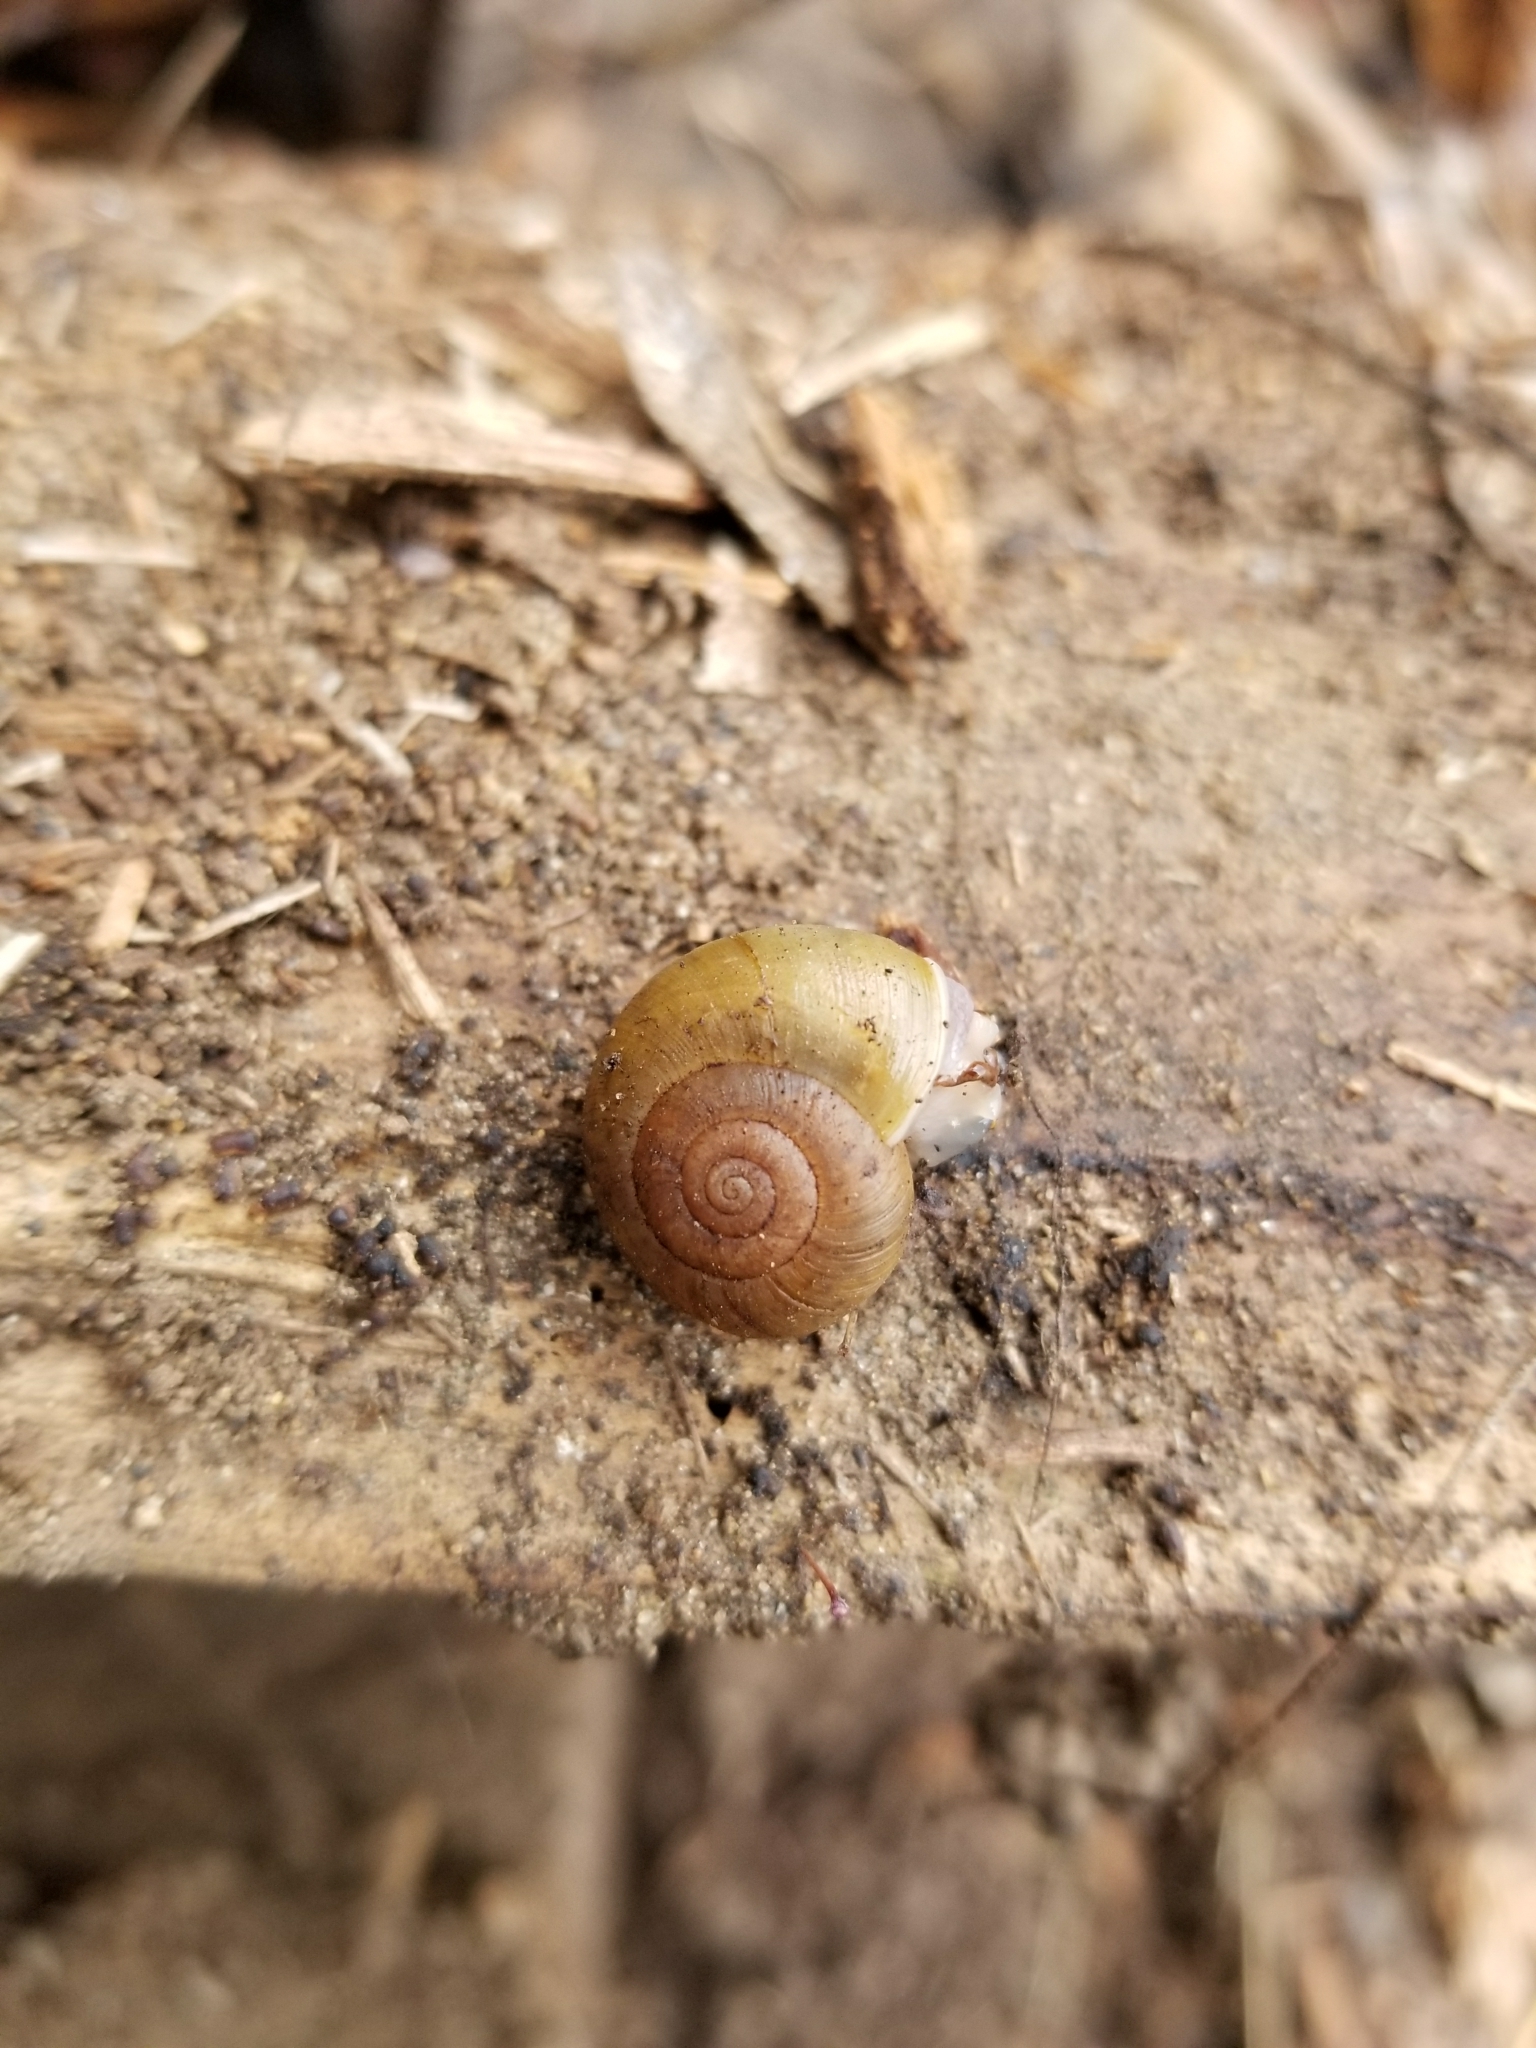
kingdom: Animalia
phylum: Mollusca
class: Gastropoda
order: Stylommatophora
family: Haplotrematidae
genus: Haplotrema
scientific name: Haplotrema minimum
